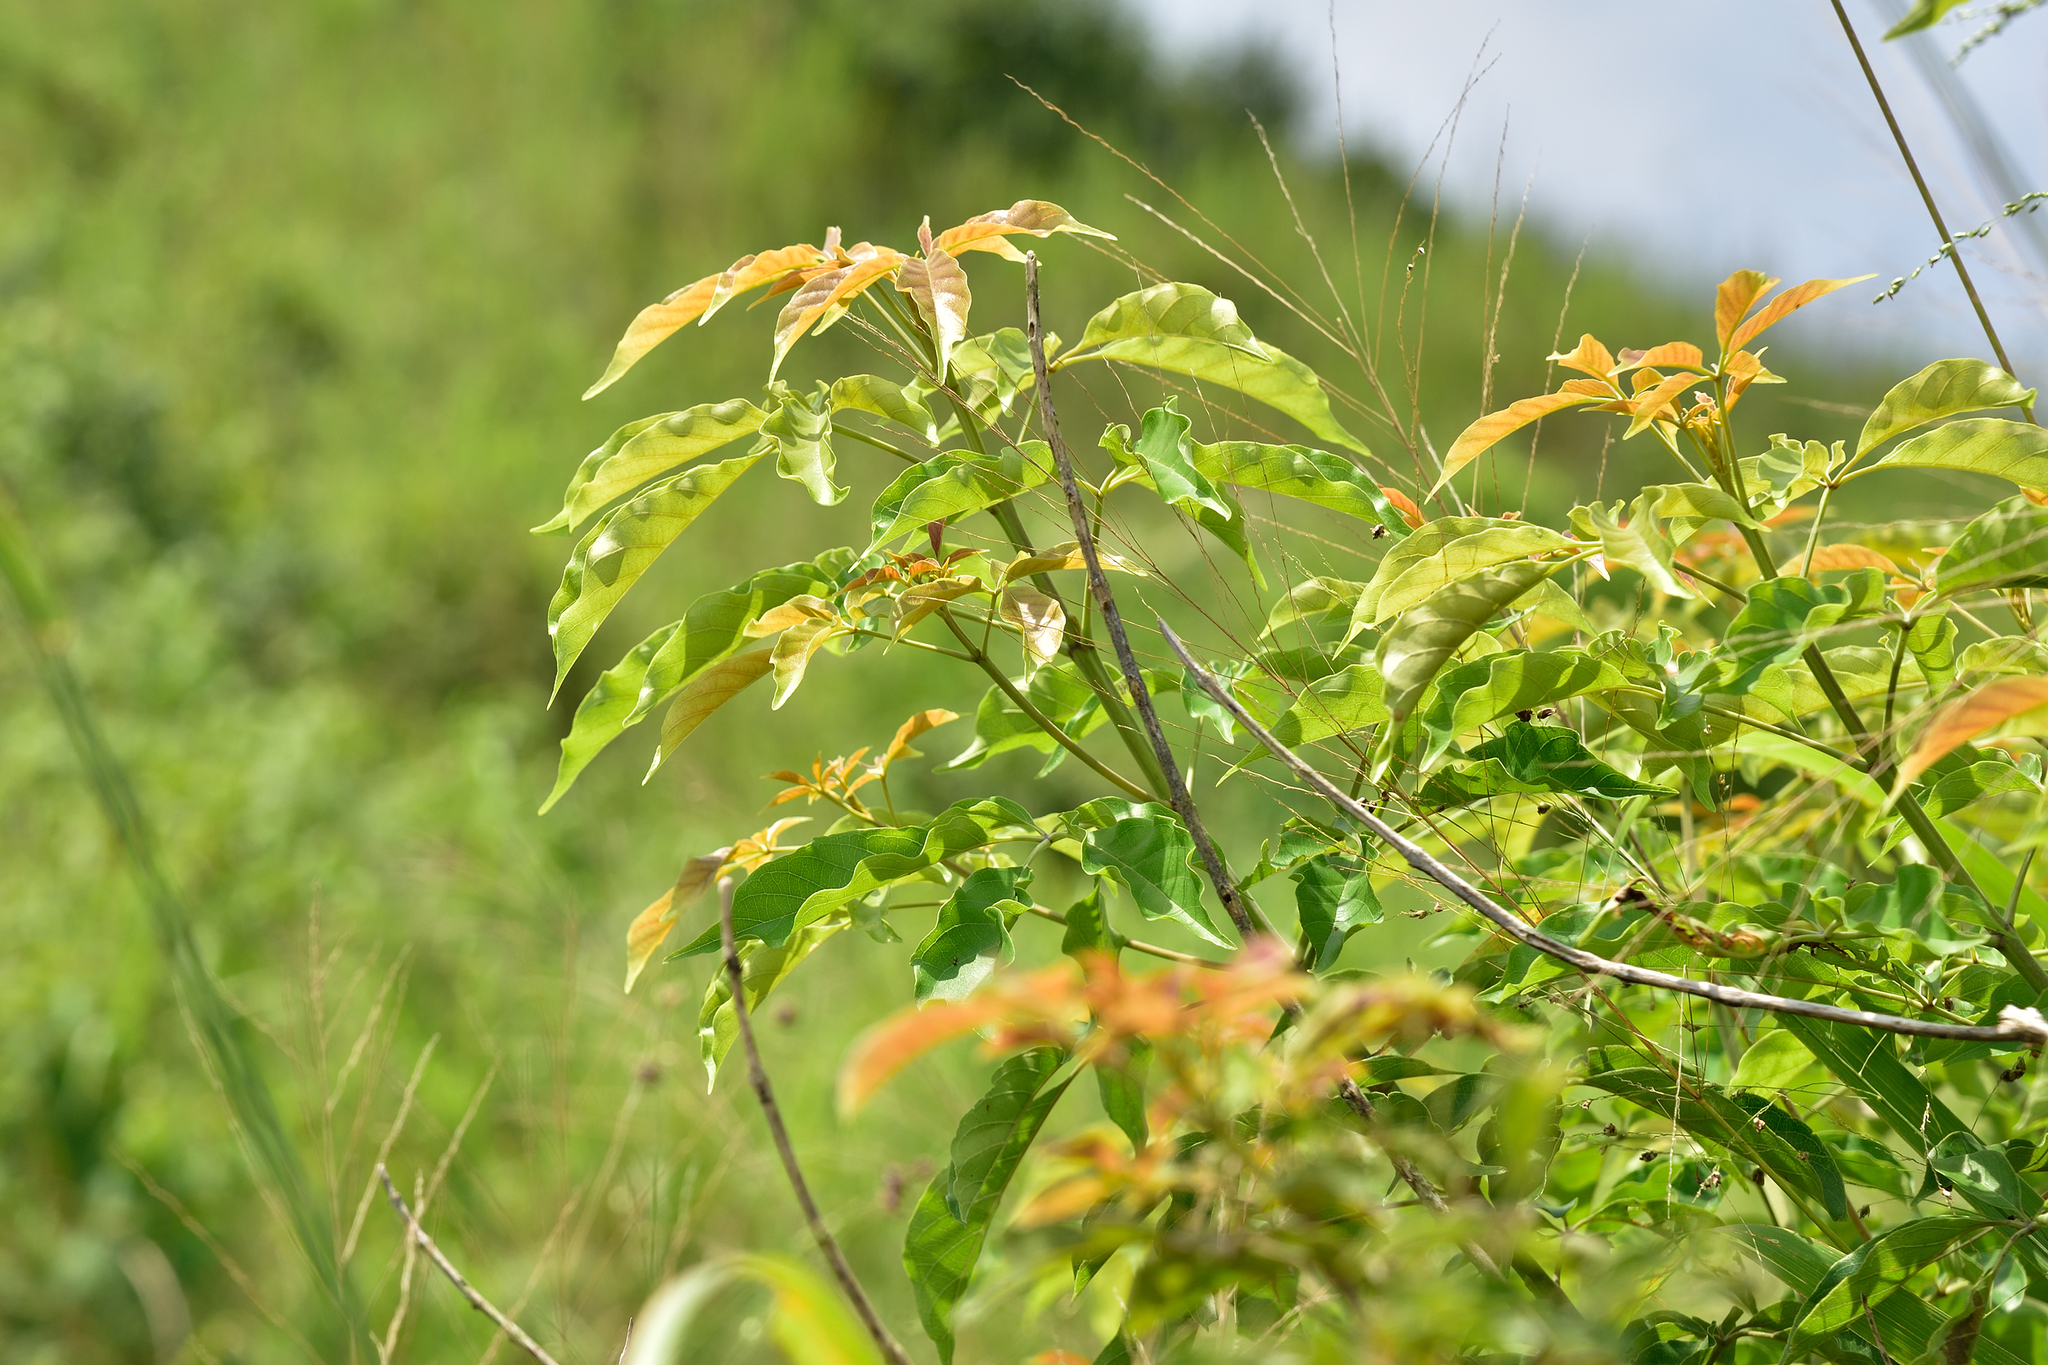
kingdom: Plantae
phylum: Tracheophyta
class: Magnoliopsida
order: Lamiales
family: Lamiaceae
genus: Vitex
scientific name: Vitex quinata
